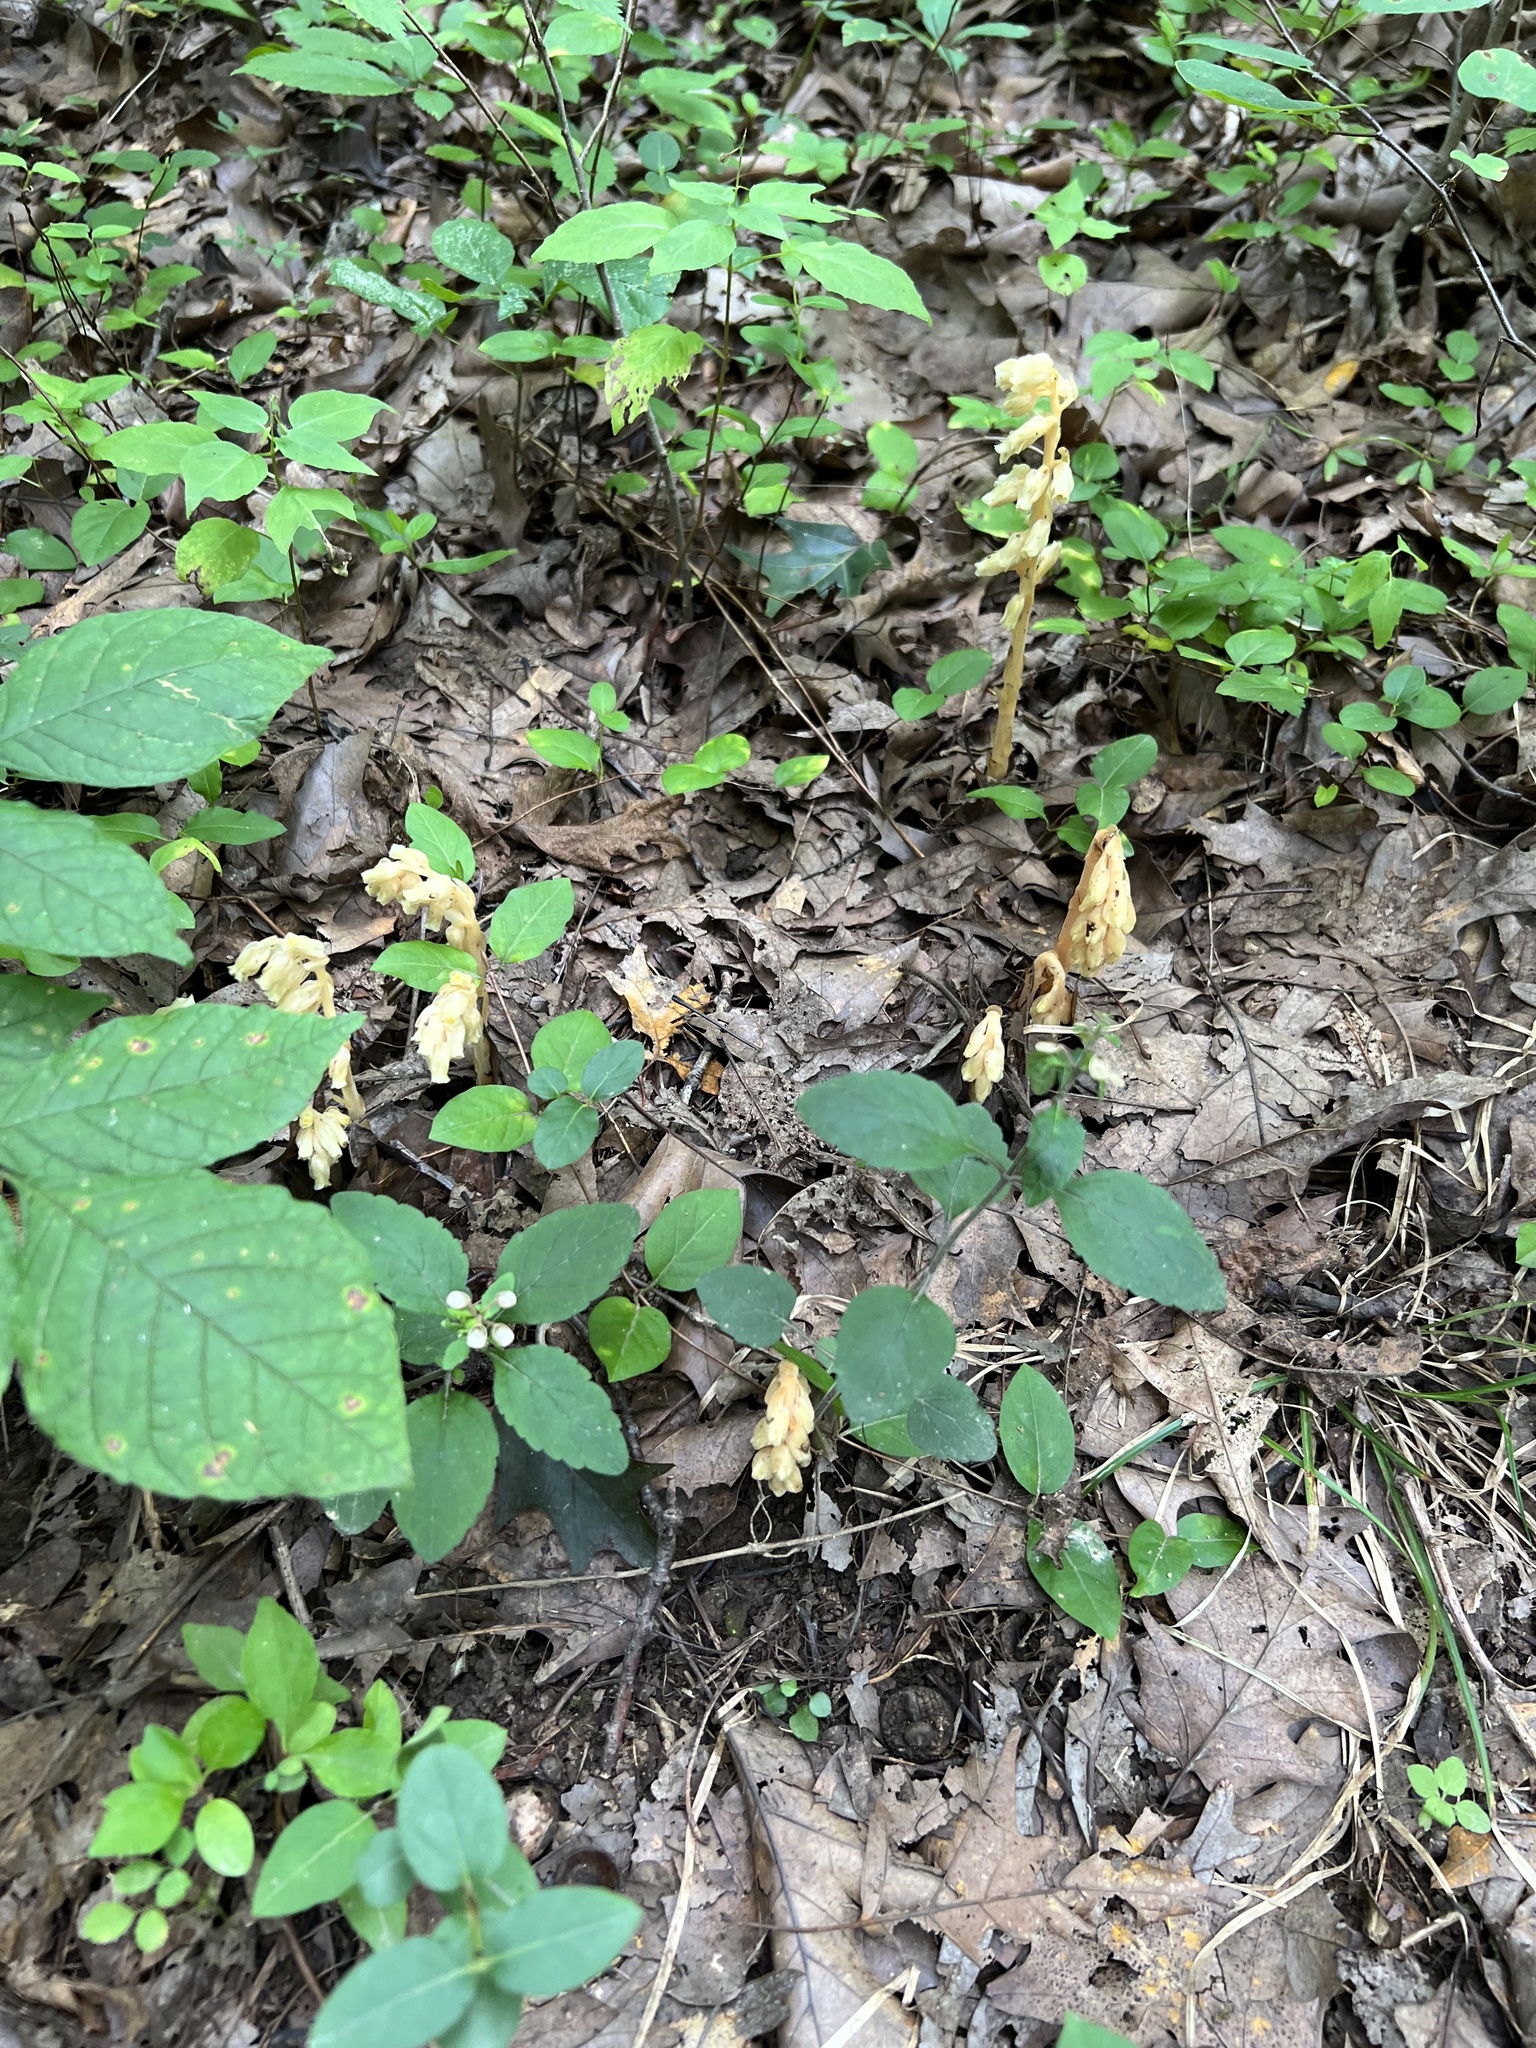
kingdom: Plantae
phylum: Tracheophyta
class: Magnoliopsida
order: Ericales
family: Ericaceae
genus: Hypopitys
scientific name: Hypopitys monotropa
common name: Yellow bird's-nest
